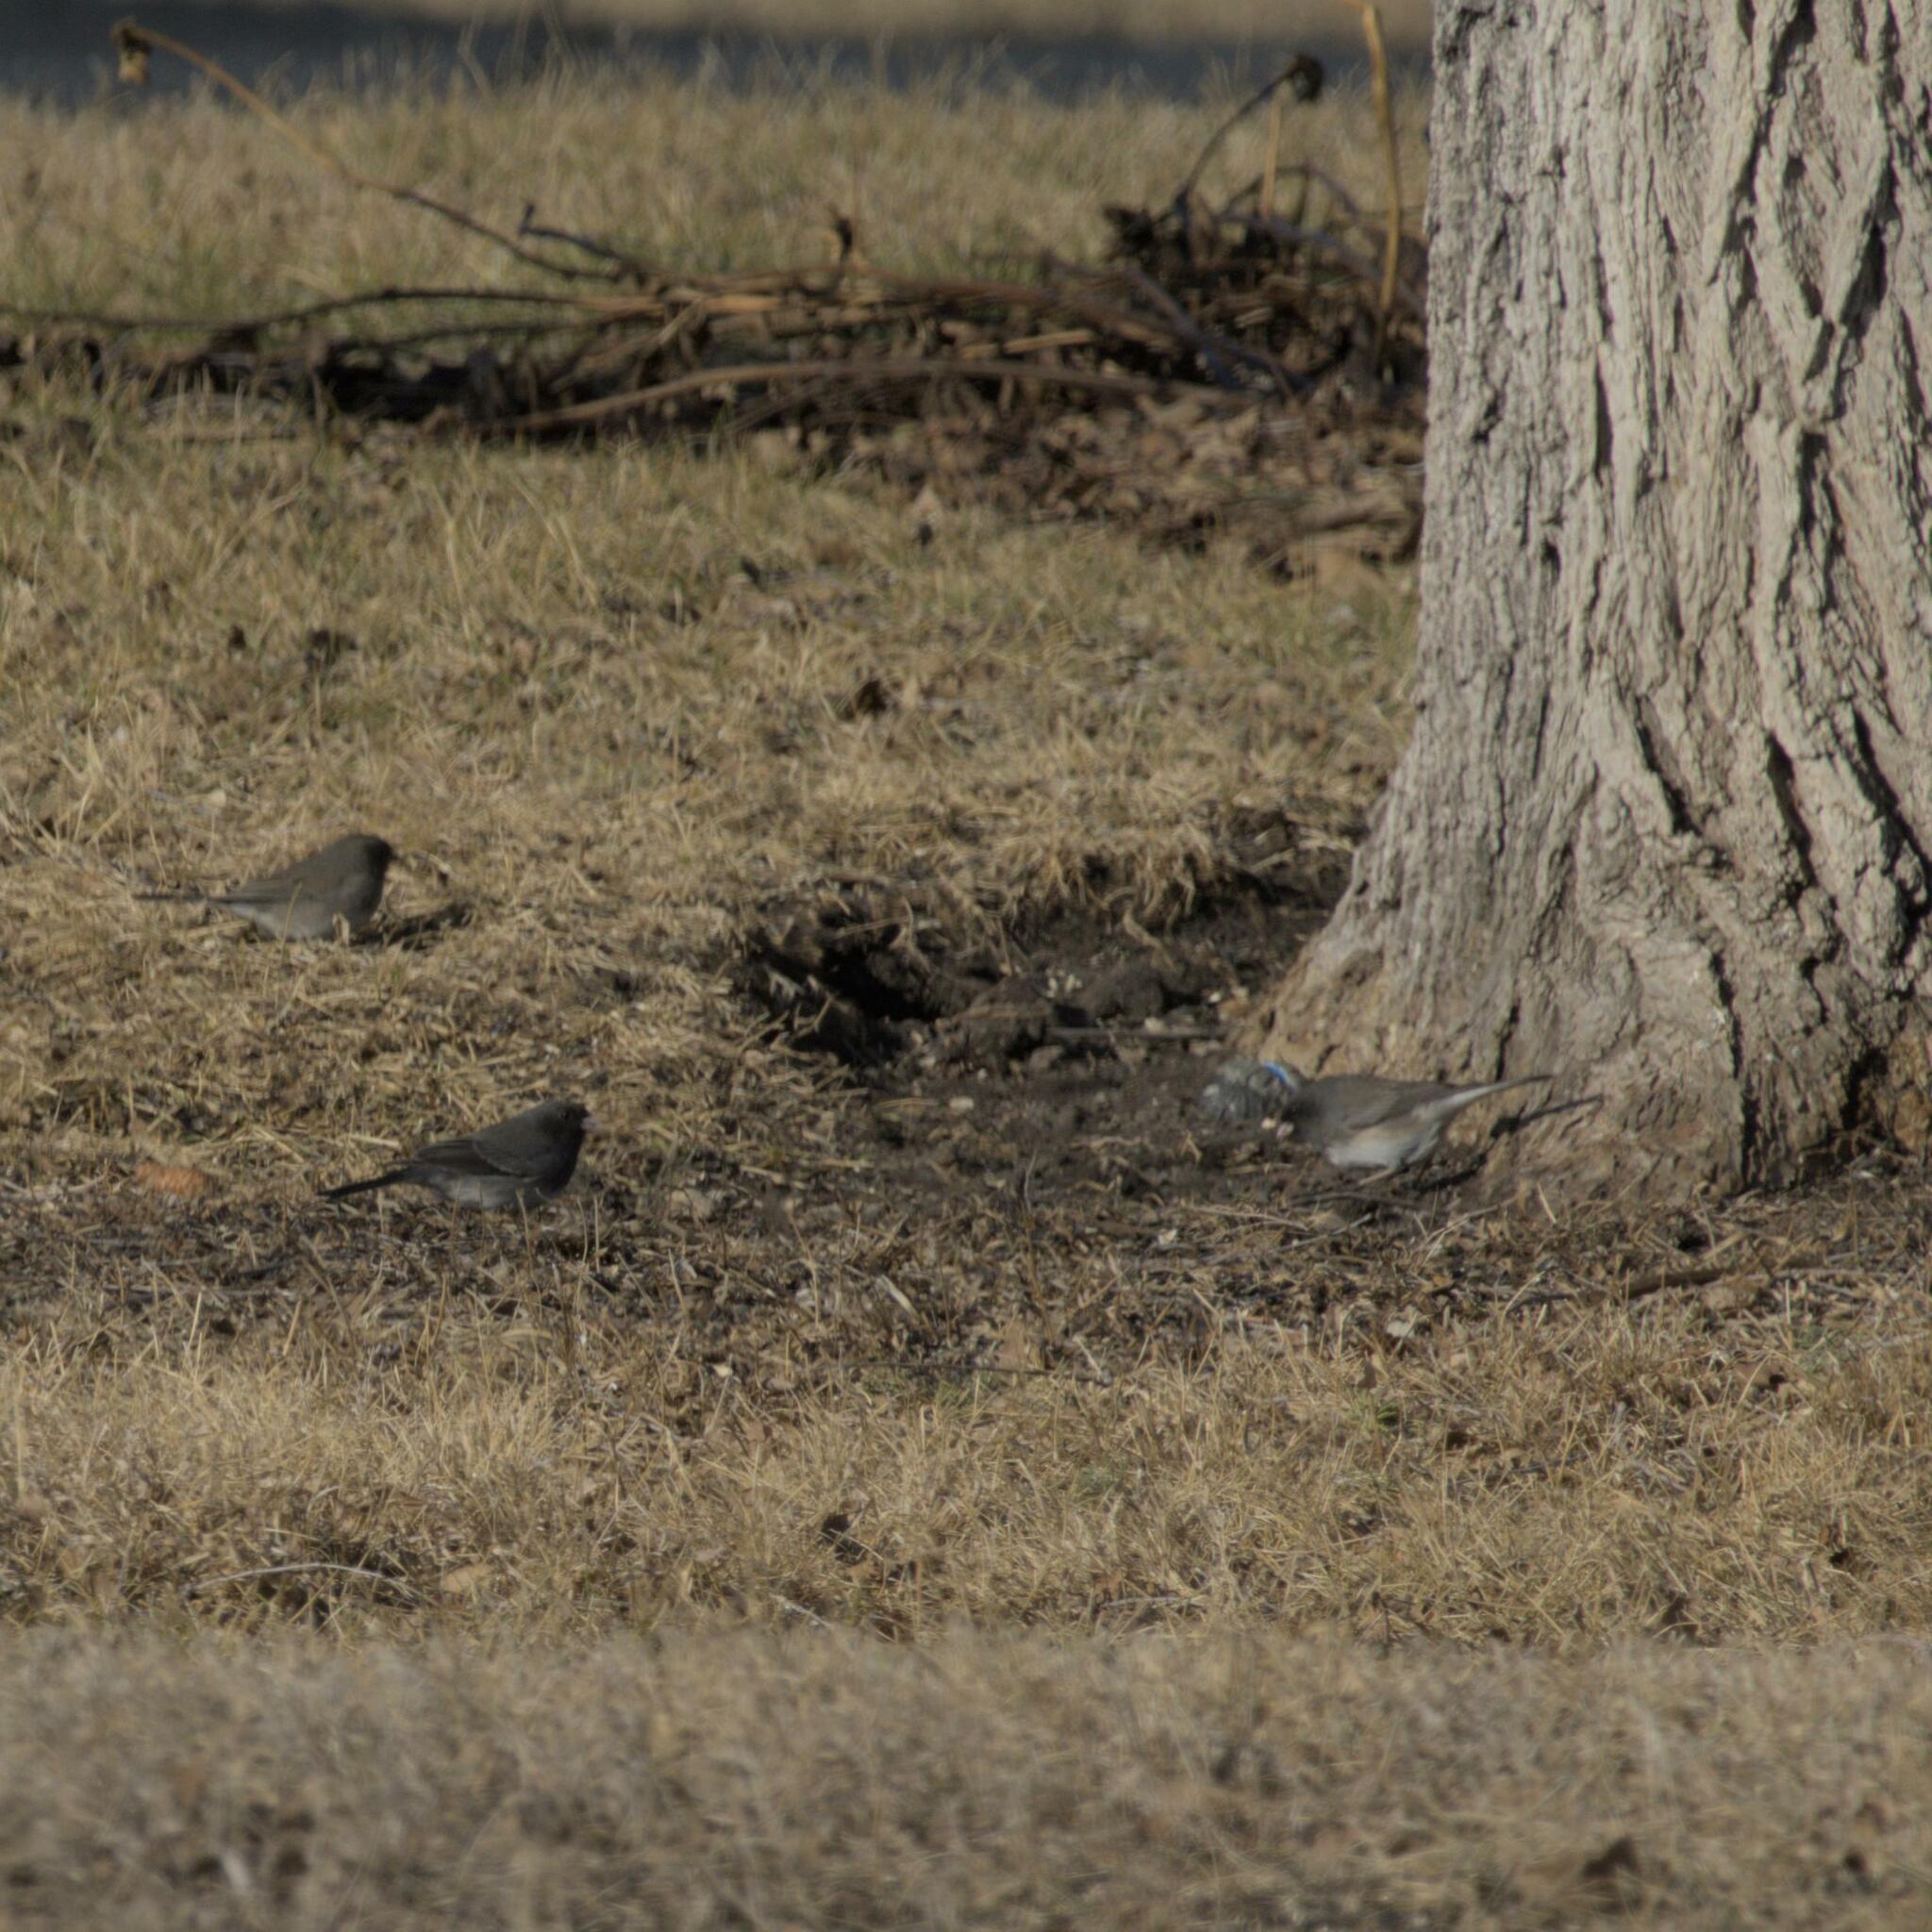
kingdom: Animalia
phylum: Chordata
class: Aves
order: Passeriformes
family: Passerellidae
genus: Junco
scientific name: Junco hyemalis
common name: Dark-eyed junco
